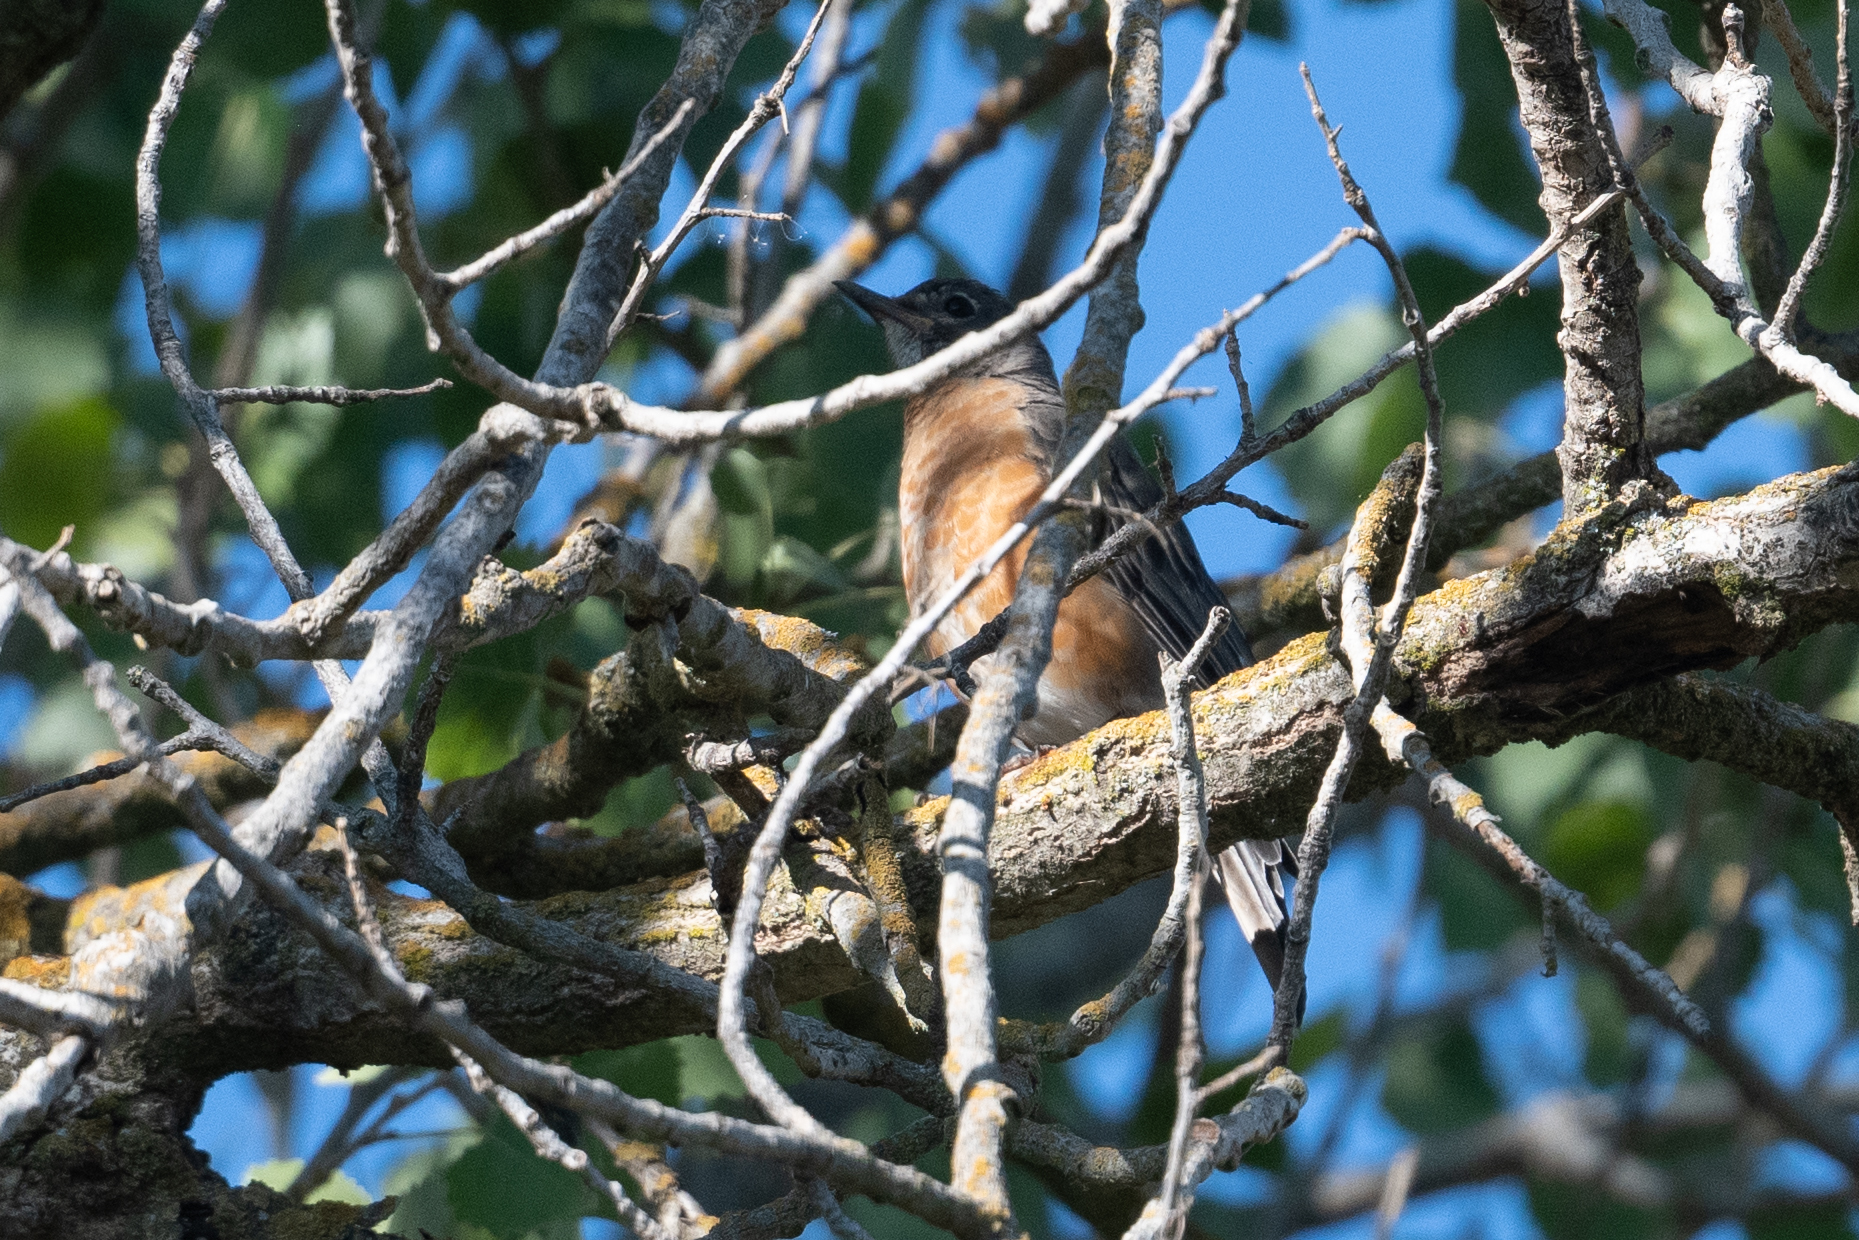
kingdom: Animalia
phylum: Chordata
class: Aves
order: Passeriformes
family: Turdidae
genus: Turdus
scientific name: Turdus migratorius
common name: American robin
